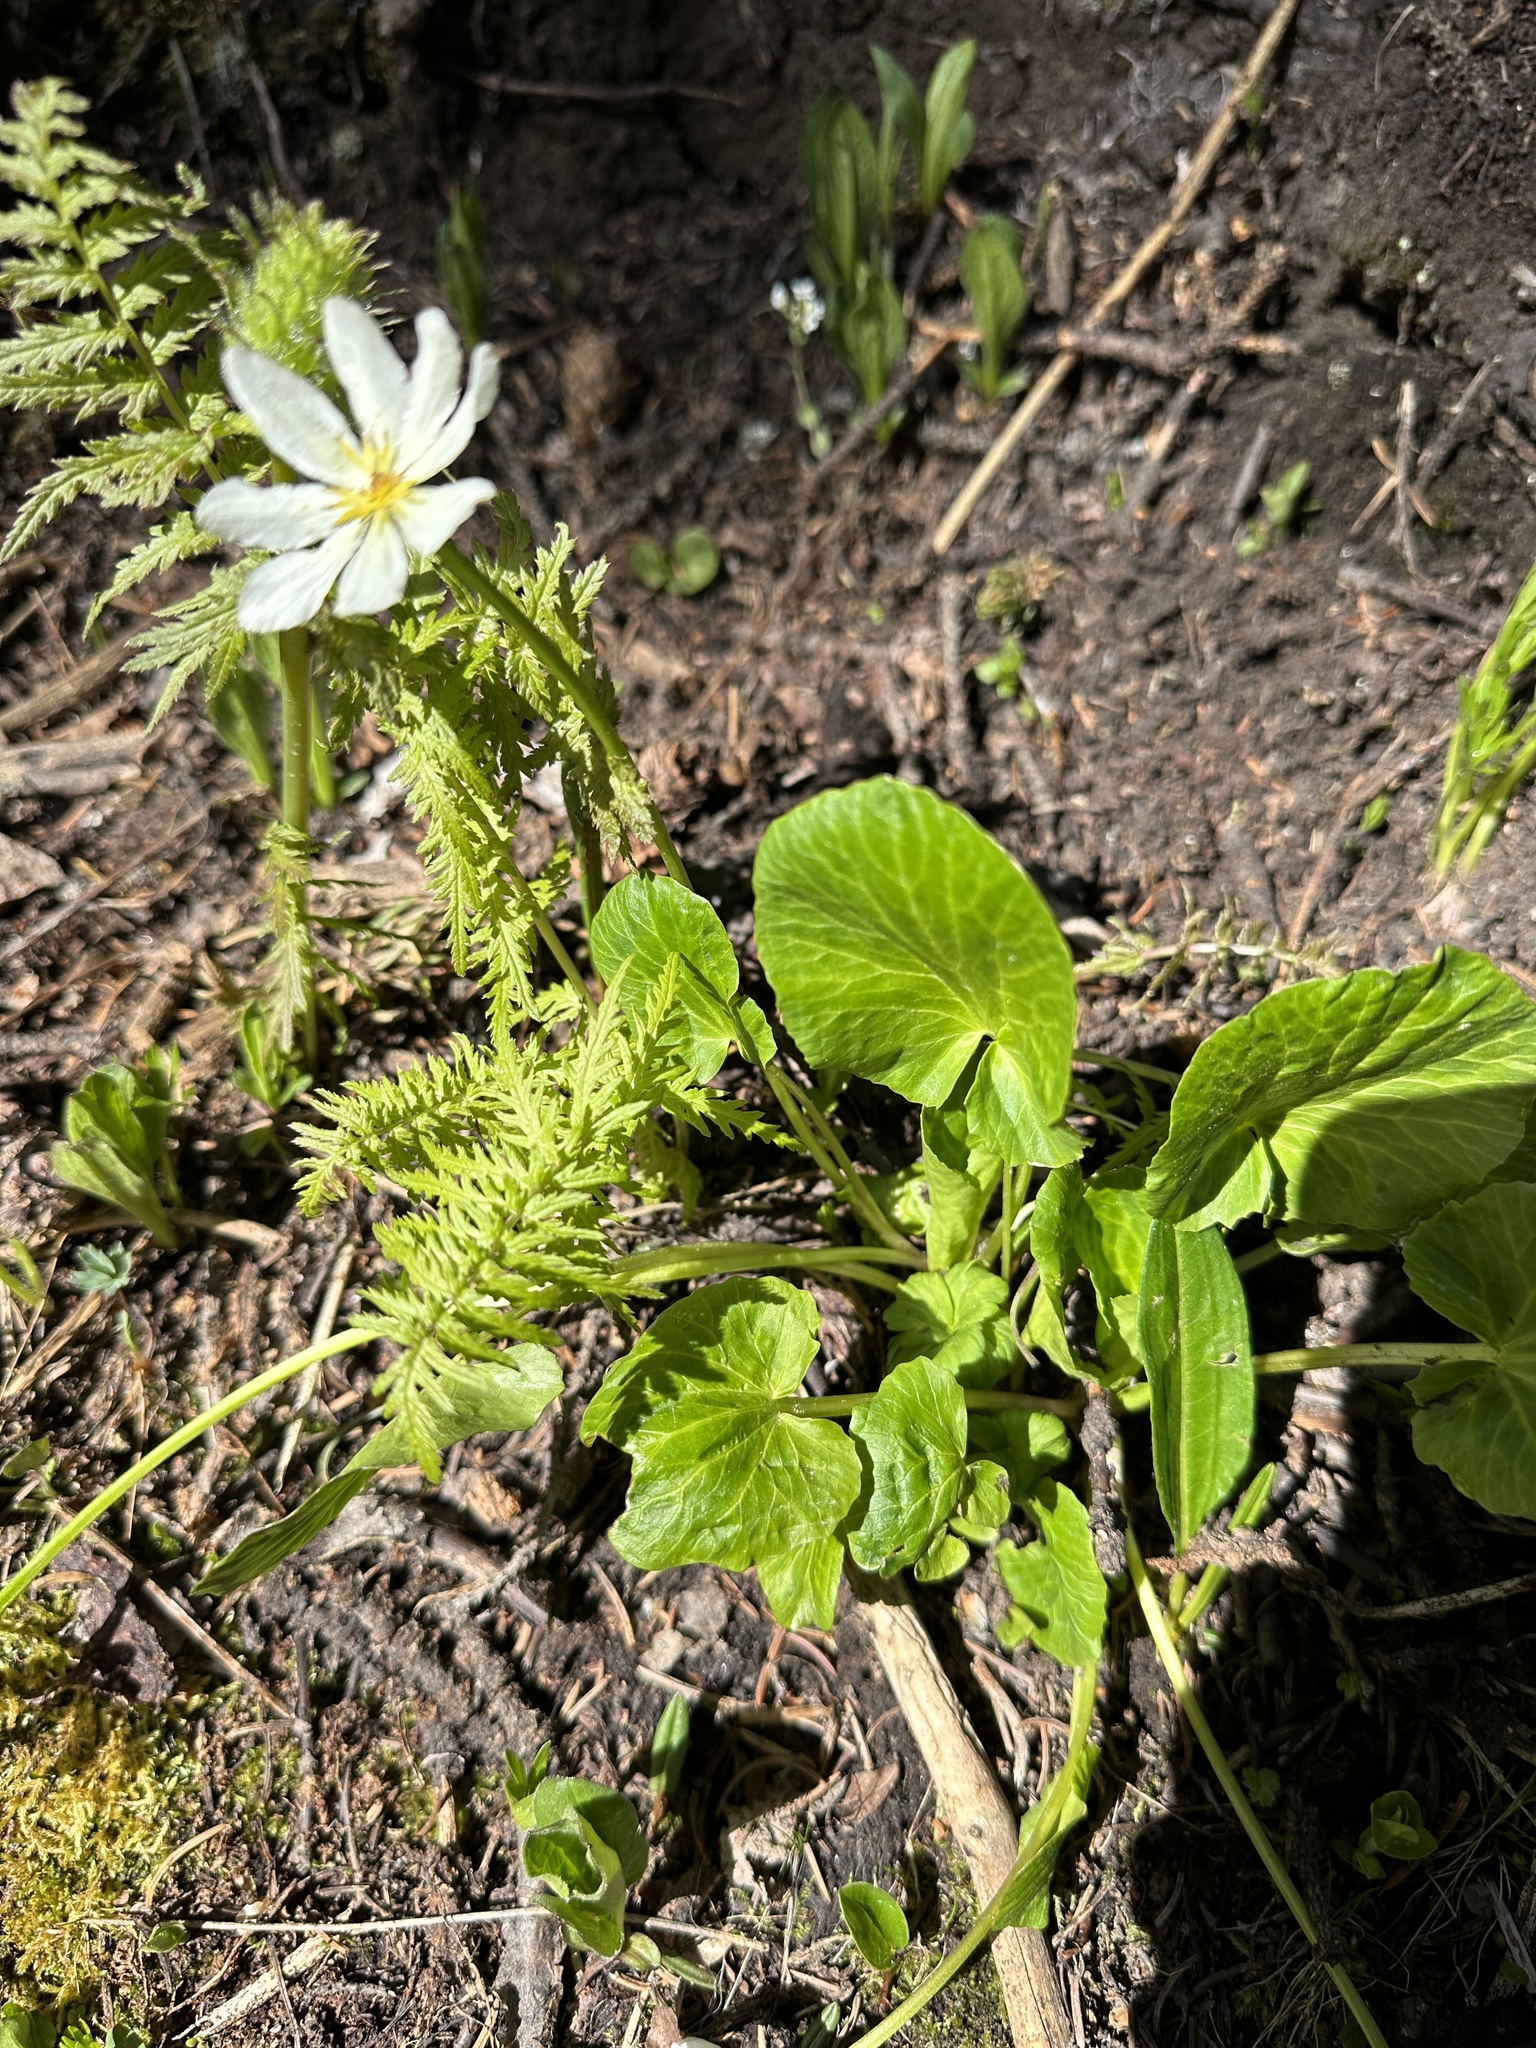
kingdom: Plantae
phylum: Tracheophyta
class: Magnoliopsida
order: Ranunculales
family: Ranunculaceae
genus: Caltha
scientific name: Caltha leptosepala
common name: Elkslip
